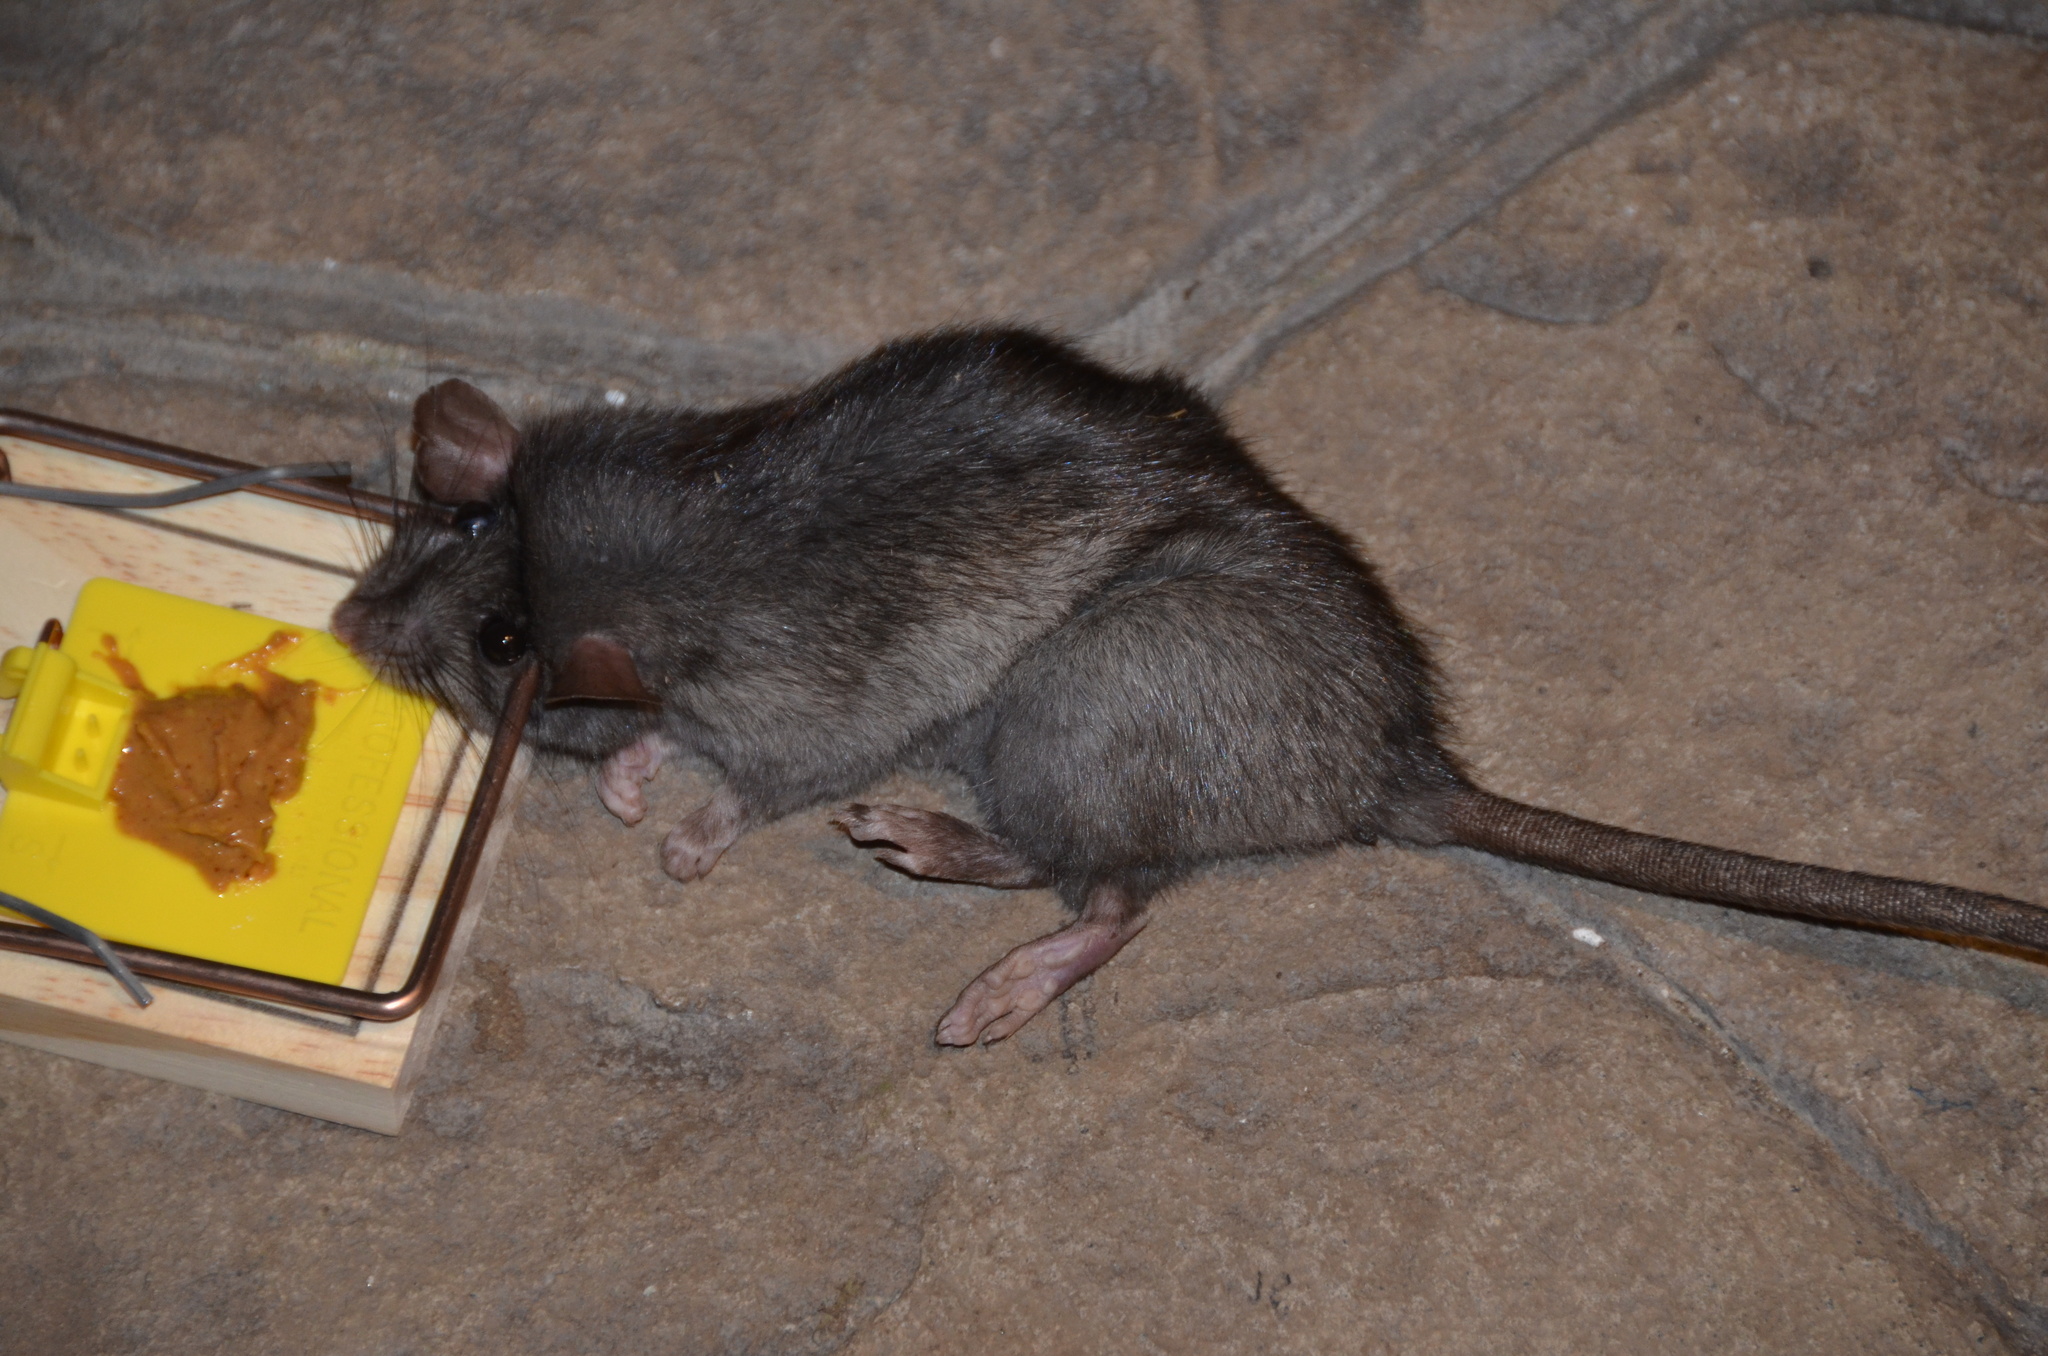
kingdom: Animalia
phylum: Chordata
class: Mammalia
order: Rodentia
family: Muridae
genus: Rattus
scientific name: Rattus rattus
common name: Black rat
